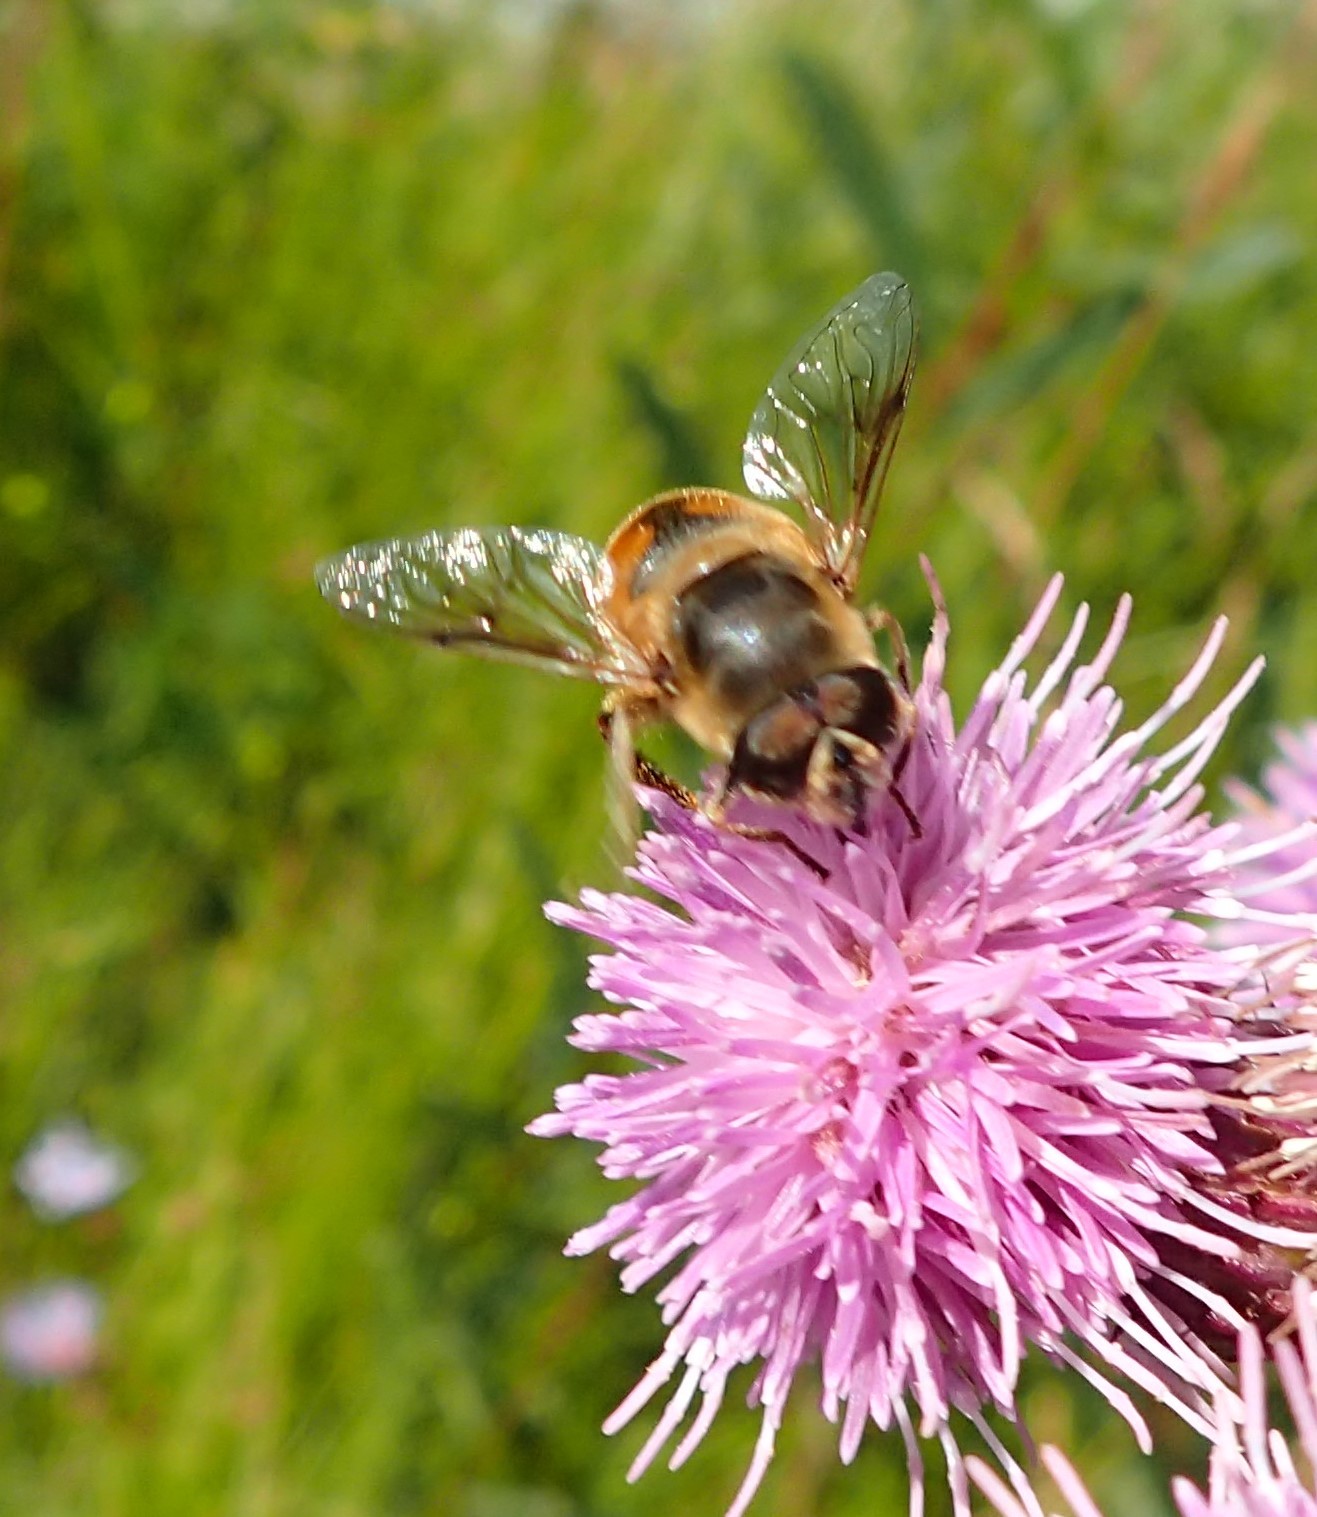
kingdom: Animalia
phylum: Arthropoda
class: Insecta
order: Diptera
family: Syrphidae
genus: Eristalis
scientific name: Eristalis tenax
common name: Drone fly
